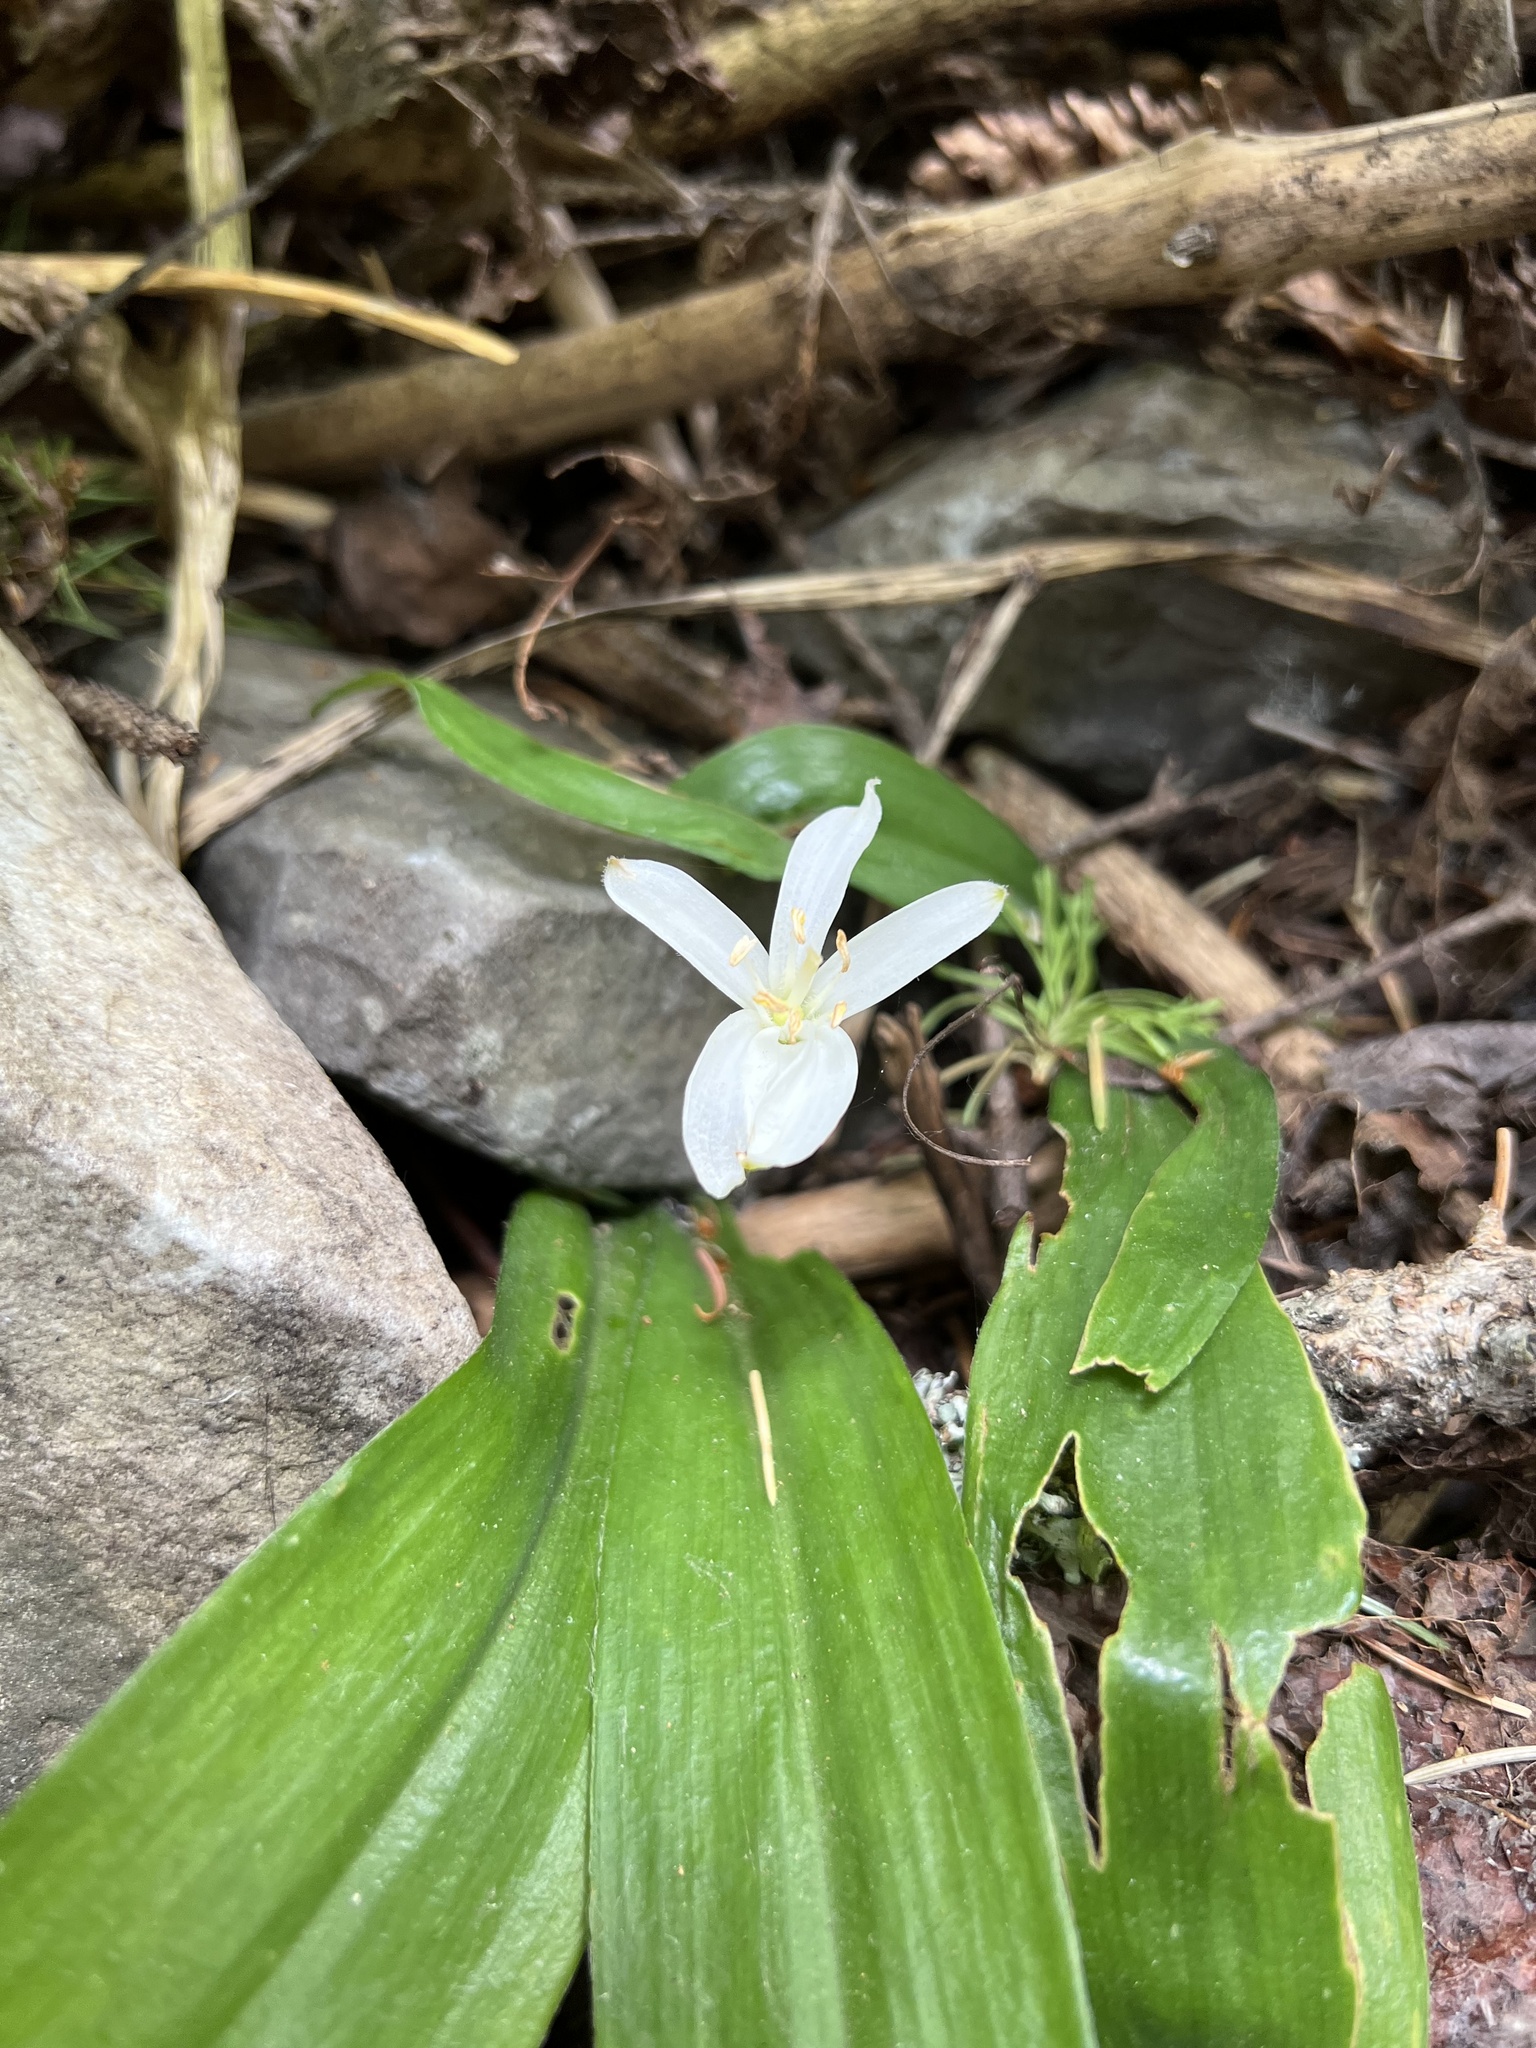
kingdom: Plantae
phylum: Tracheophyta
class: Liliopsida
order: Liliales
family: Liliaceae
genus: Clintonia
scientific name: Clintonia uniflora
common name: Queen's cup
